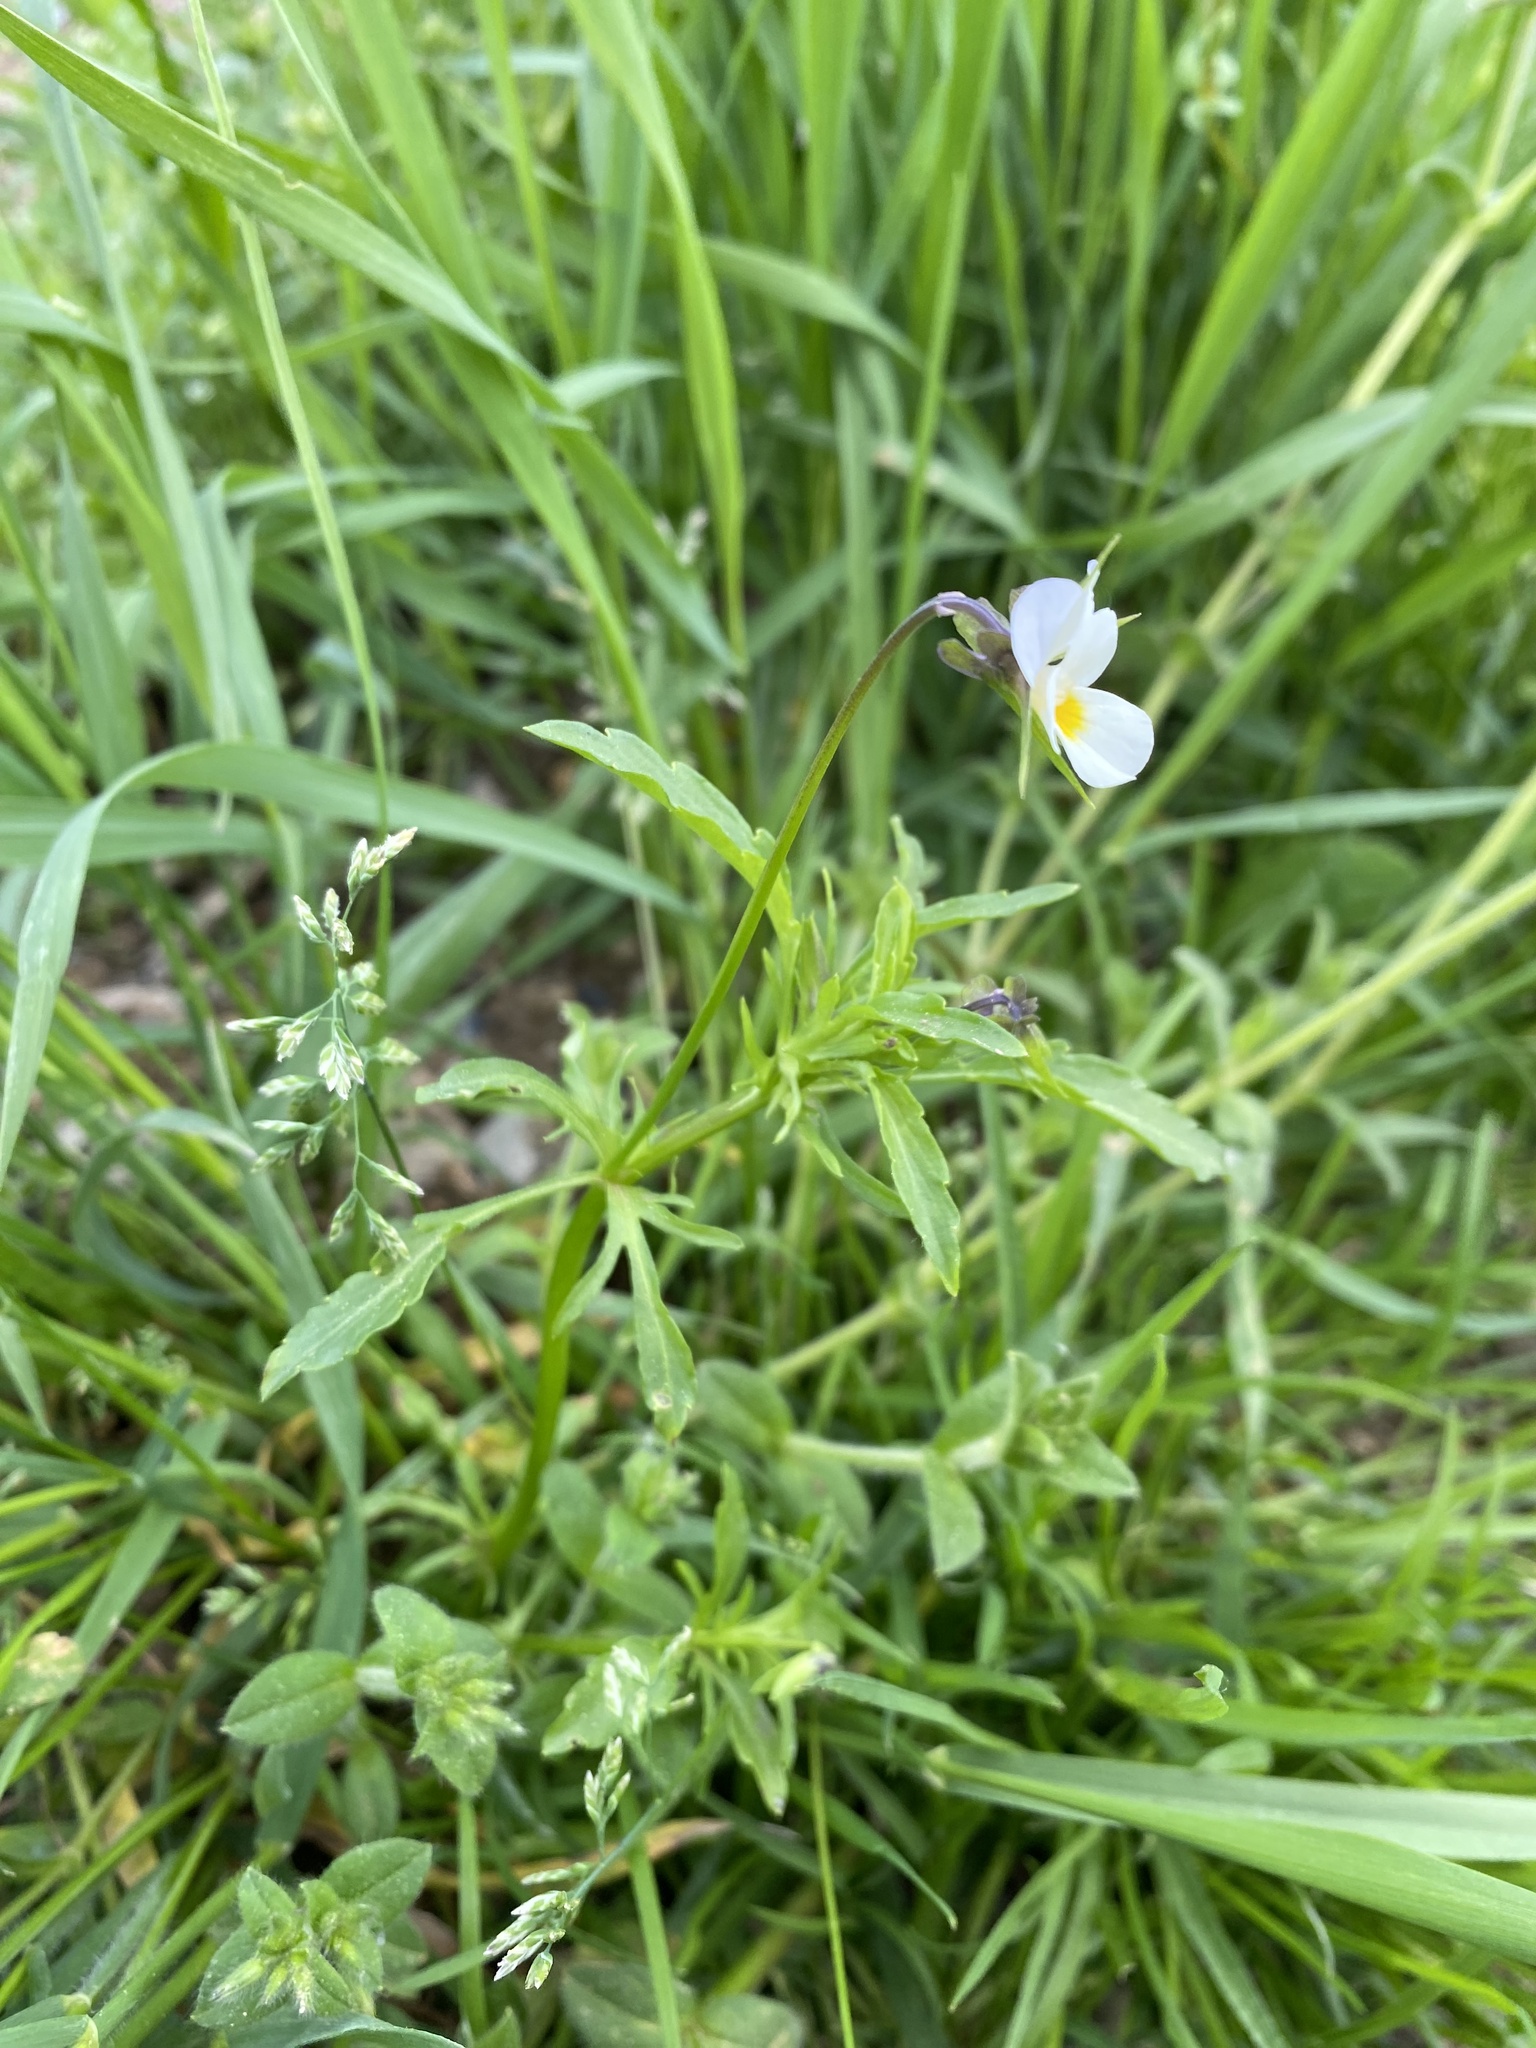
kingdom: Plantae
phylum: Tracheophyta
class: Magnoliopsida
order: Malpighiales
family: Violaceae
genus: Viola
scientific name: Viola arvensis
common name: Field pansy
